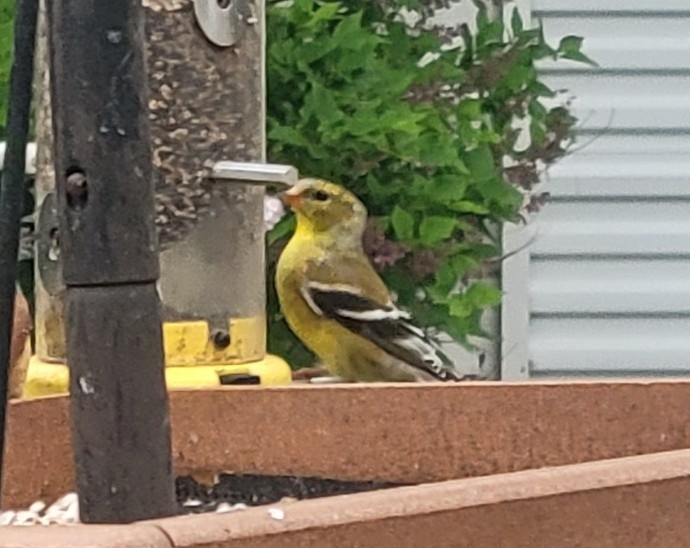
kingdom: Animalia
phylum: Chordata
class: Aves
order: Passeriformes
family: Fringillidae
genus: Spinus
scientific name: Spinus tristis
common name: American goldfinch
